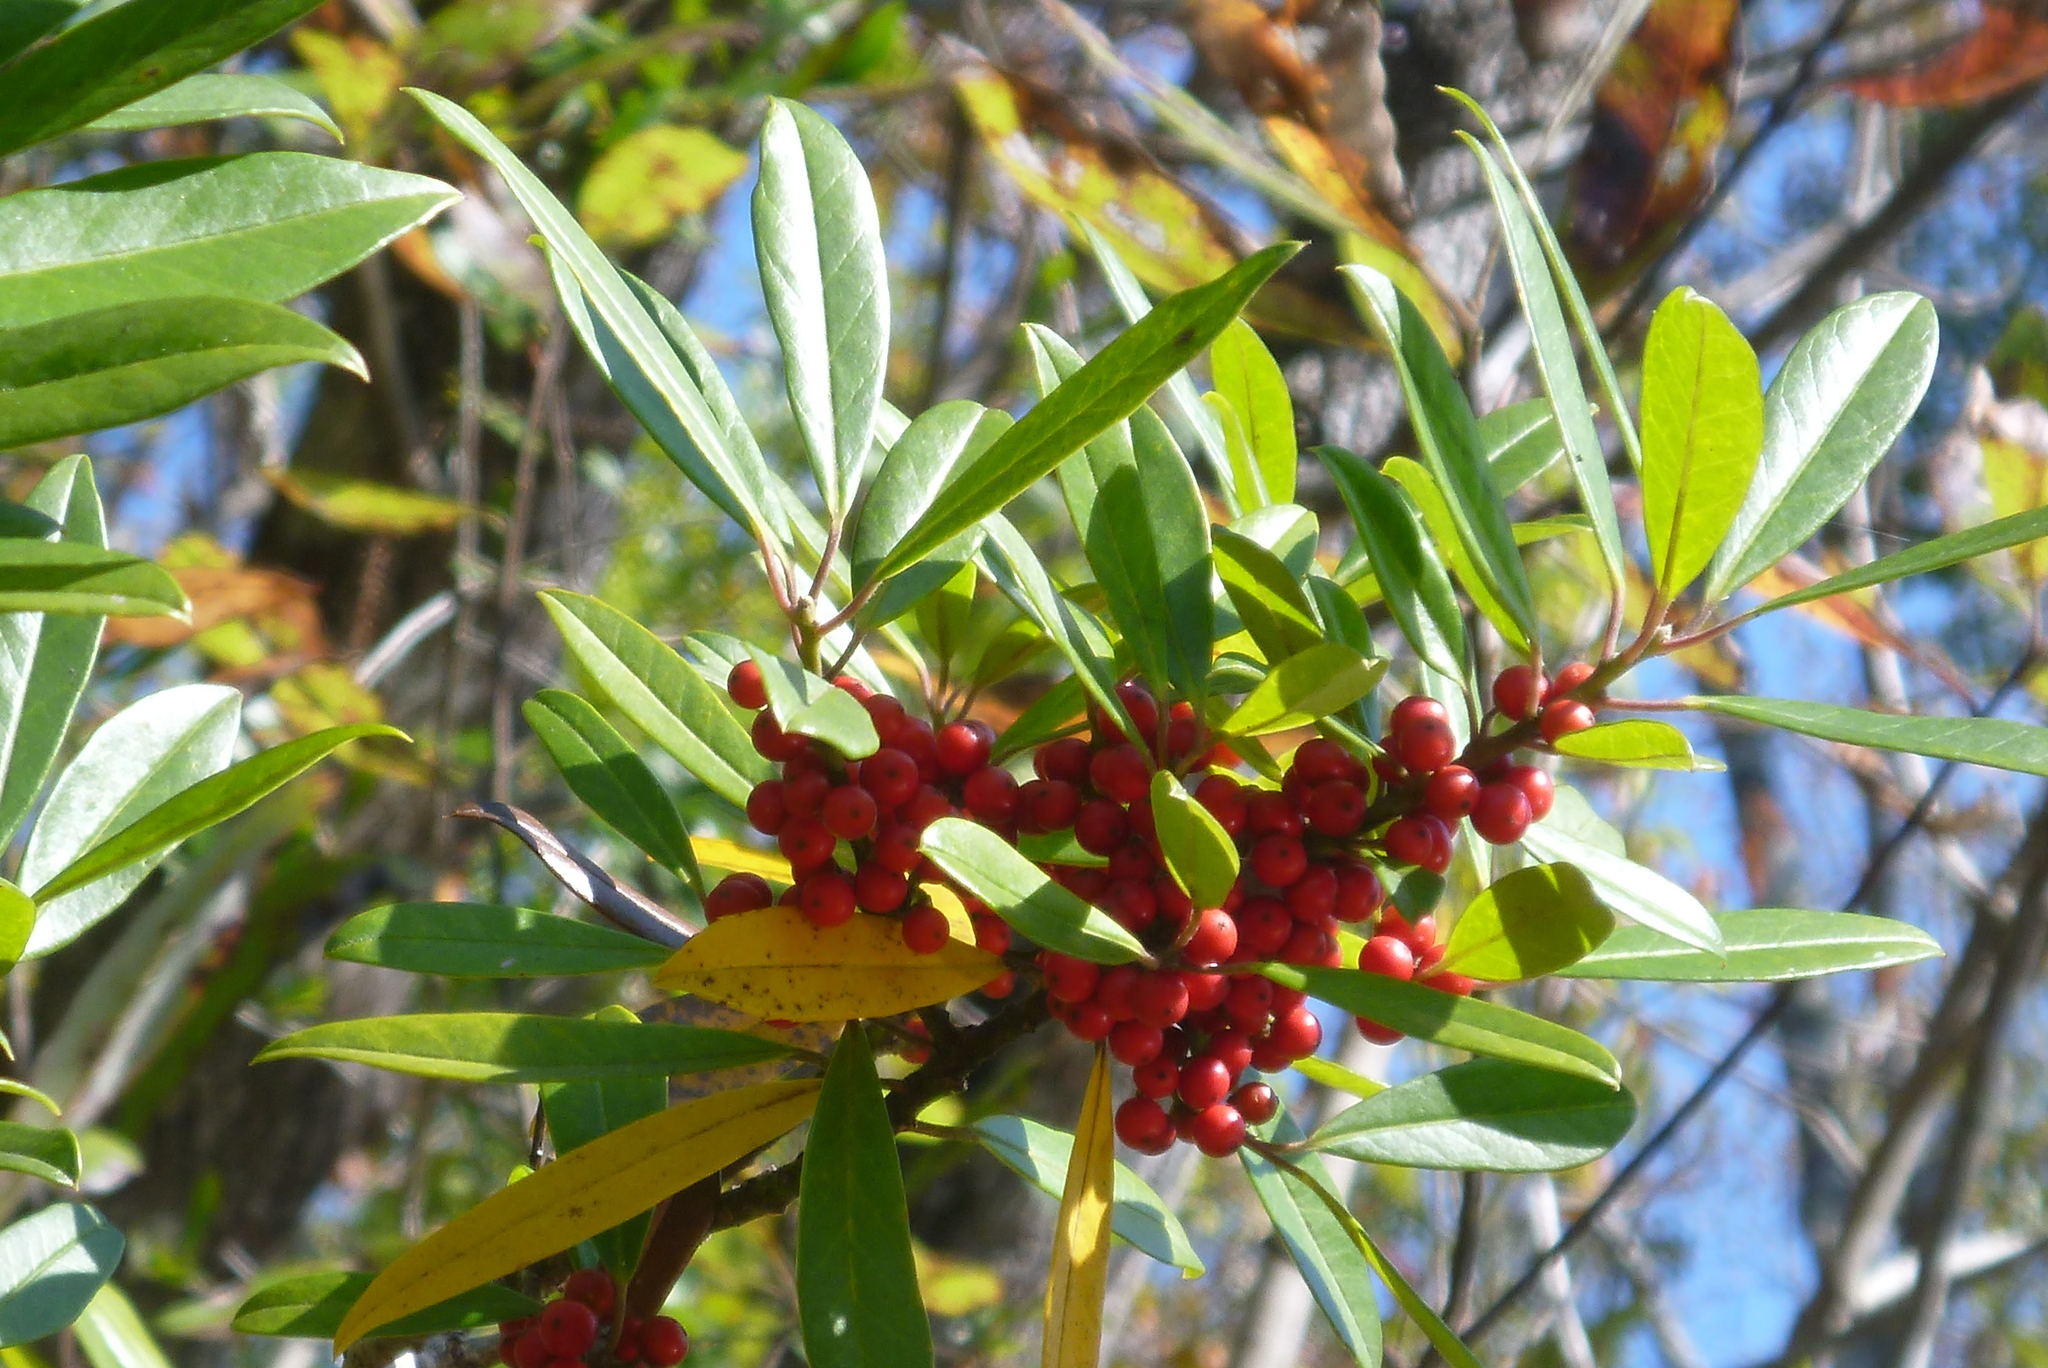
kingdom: Plantae
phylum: Tracheophyta
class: Magnoliopsida
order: Aquifoliales
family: Aquifoliaceae
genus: Ilex
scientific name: Ilex cassine
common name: Dahoon
